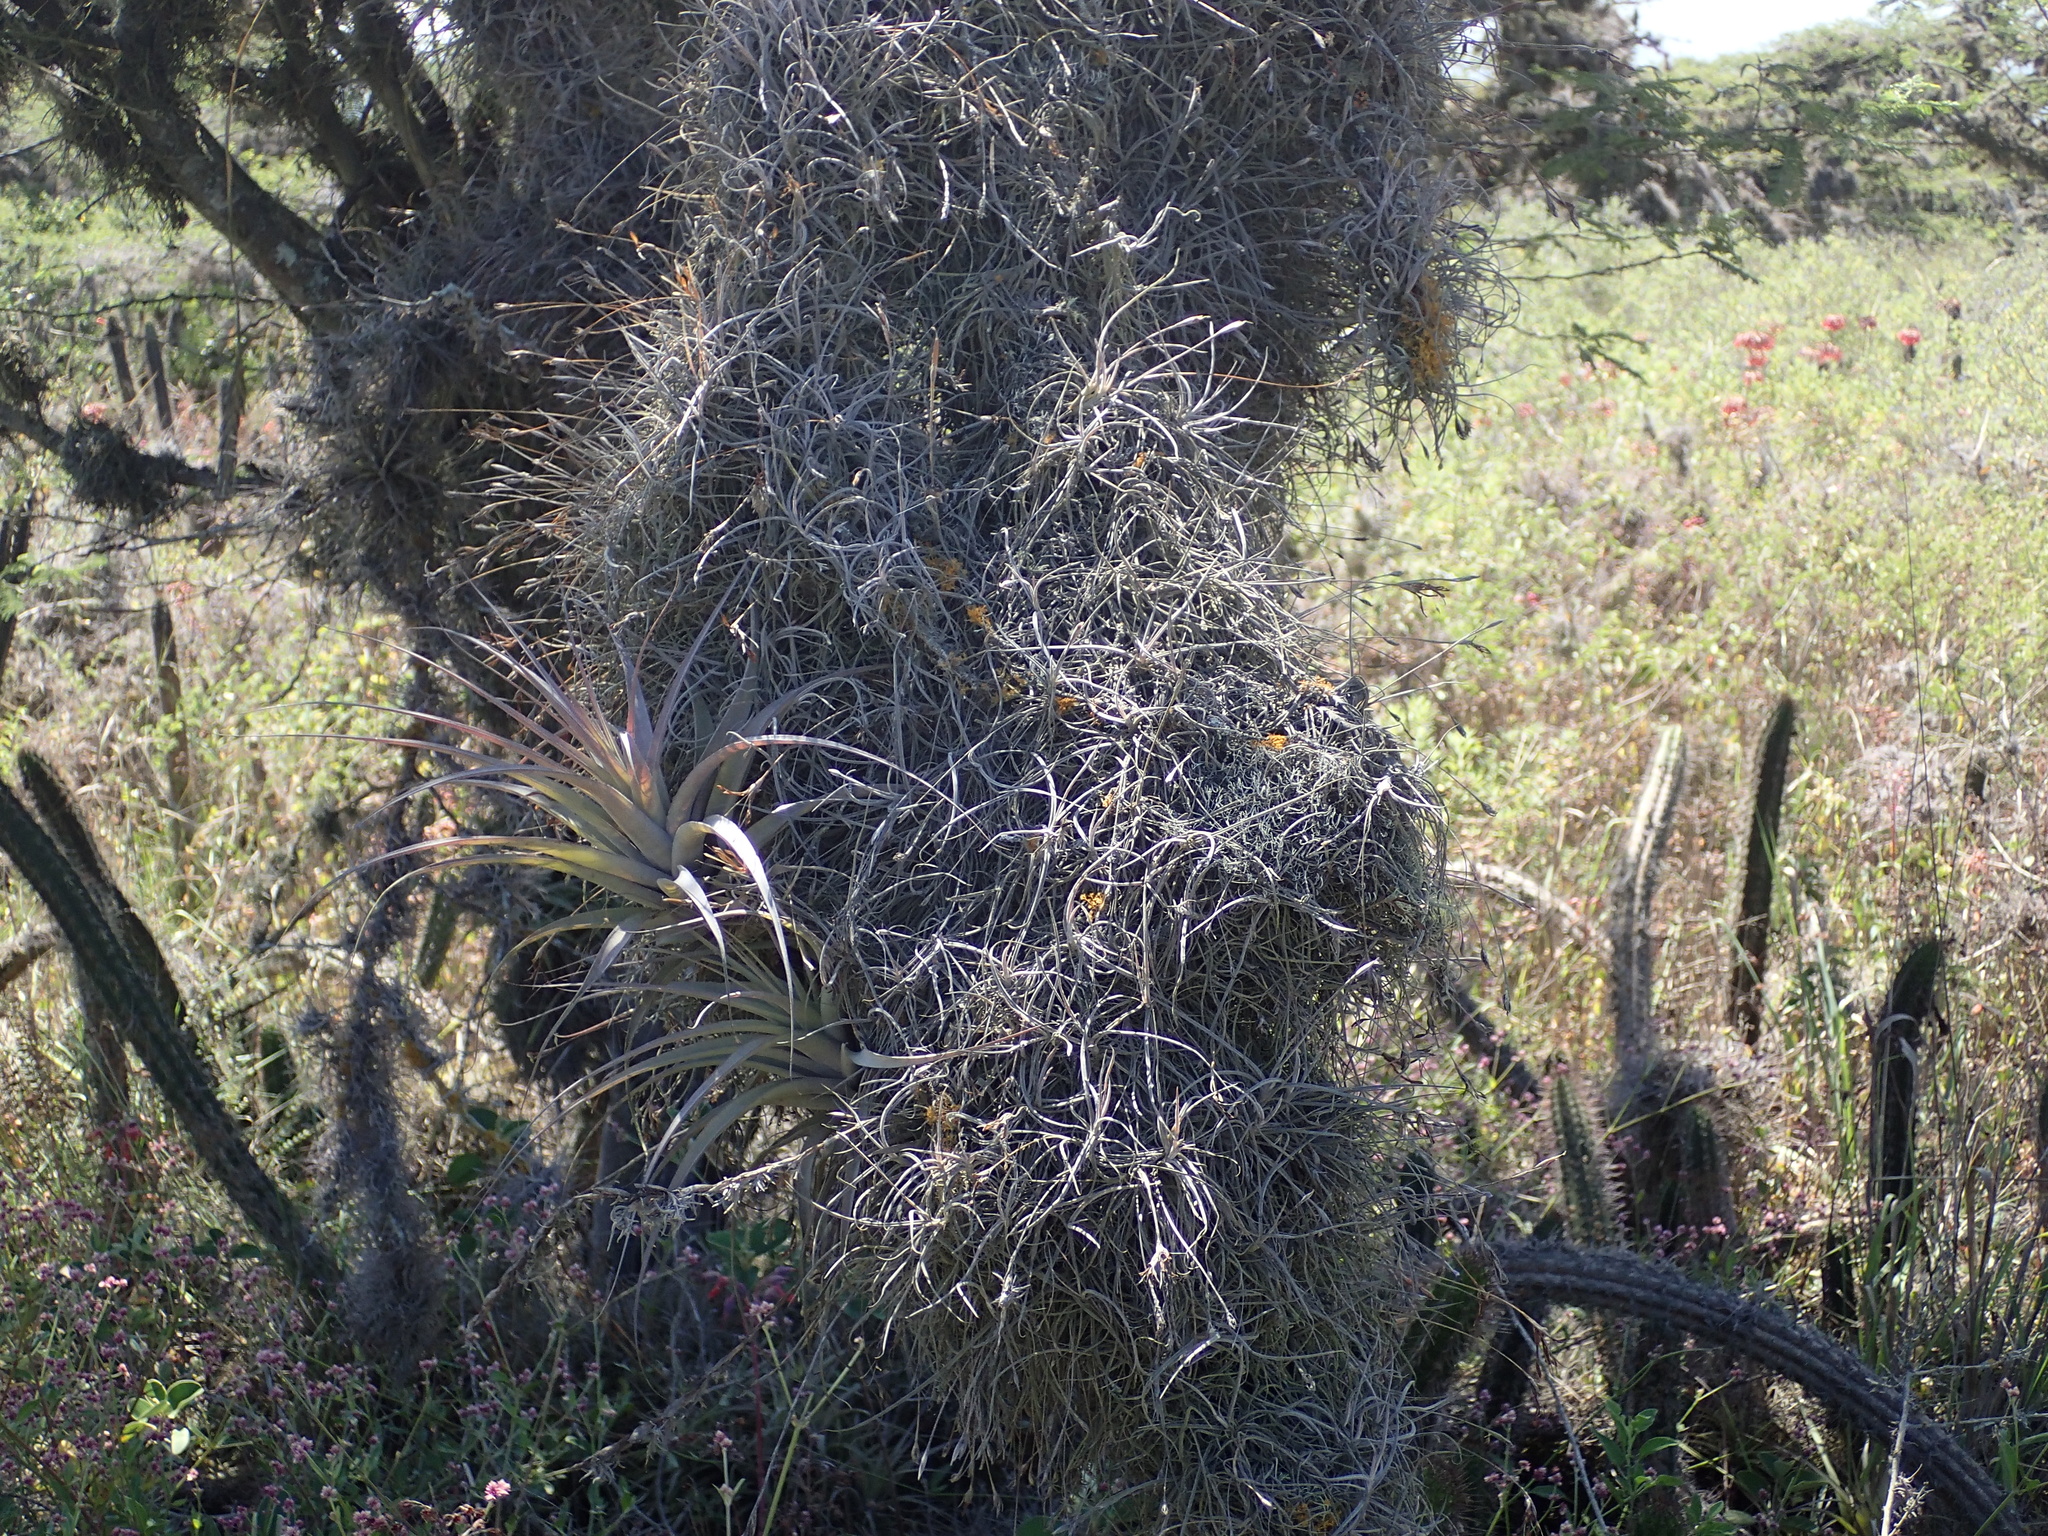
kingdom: Plantae
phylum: Tracheophyta
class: Liliopsida
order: Poales
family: Bromeliaceae
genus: Tillandsia
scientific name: Tillandsia recurvata
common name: Small ballmoss
